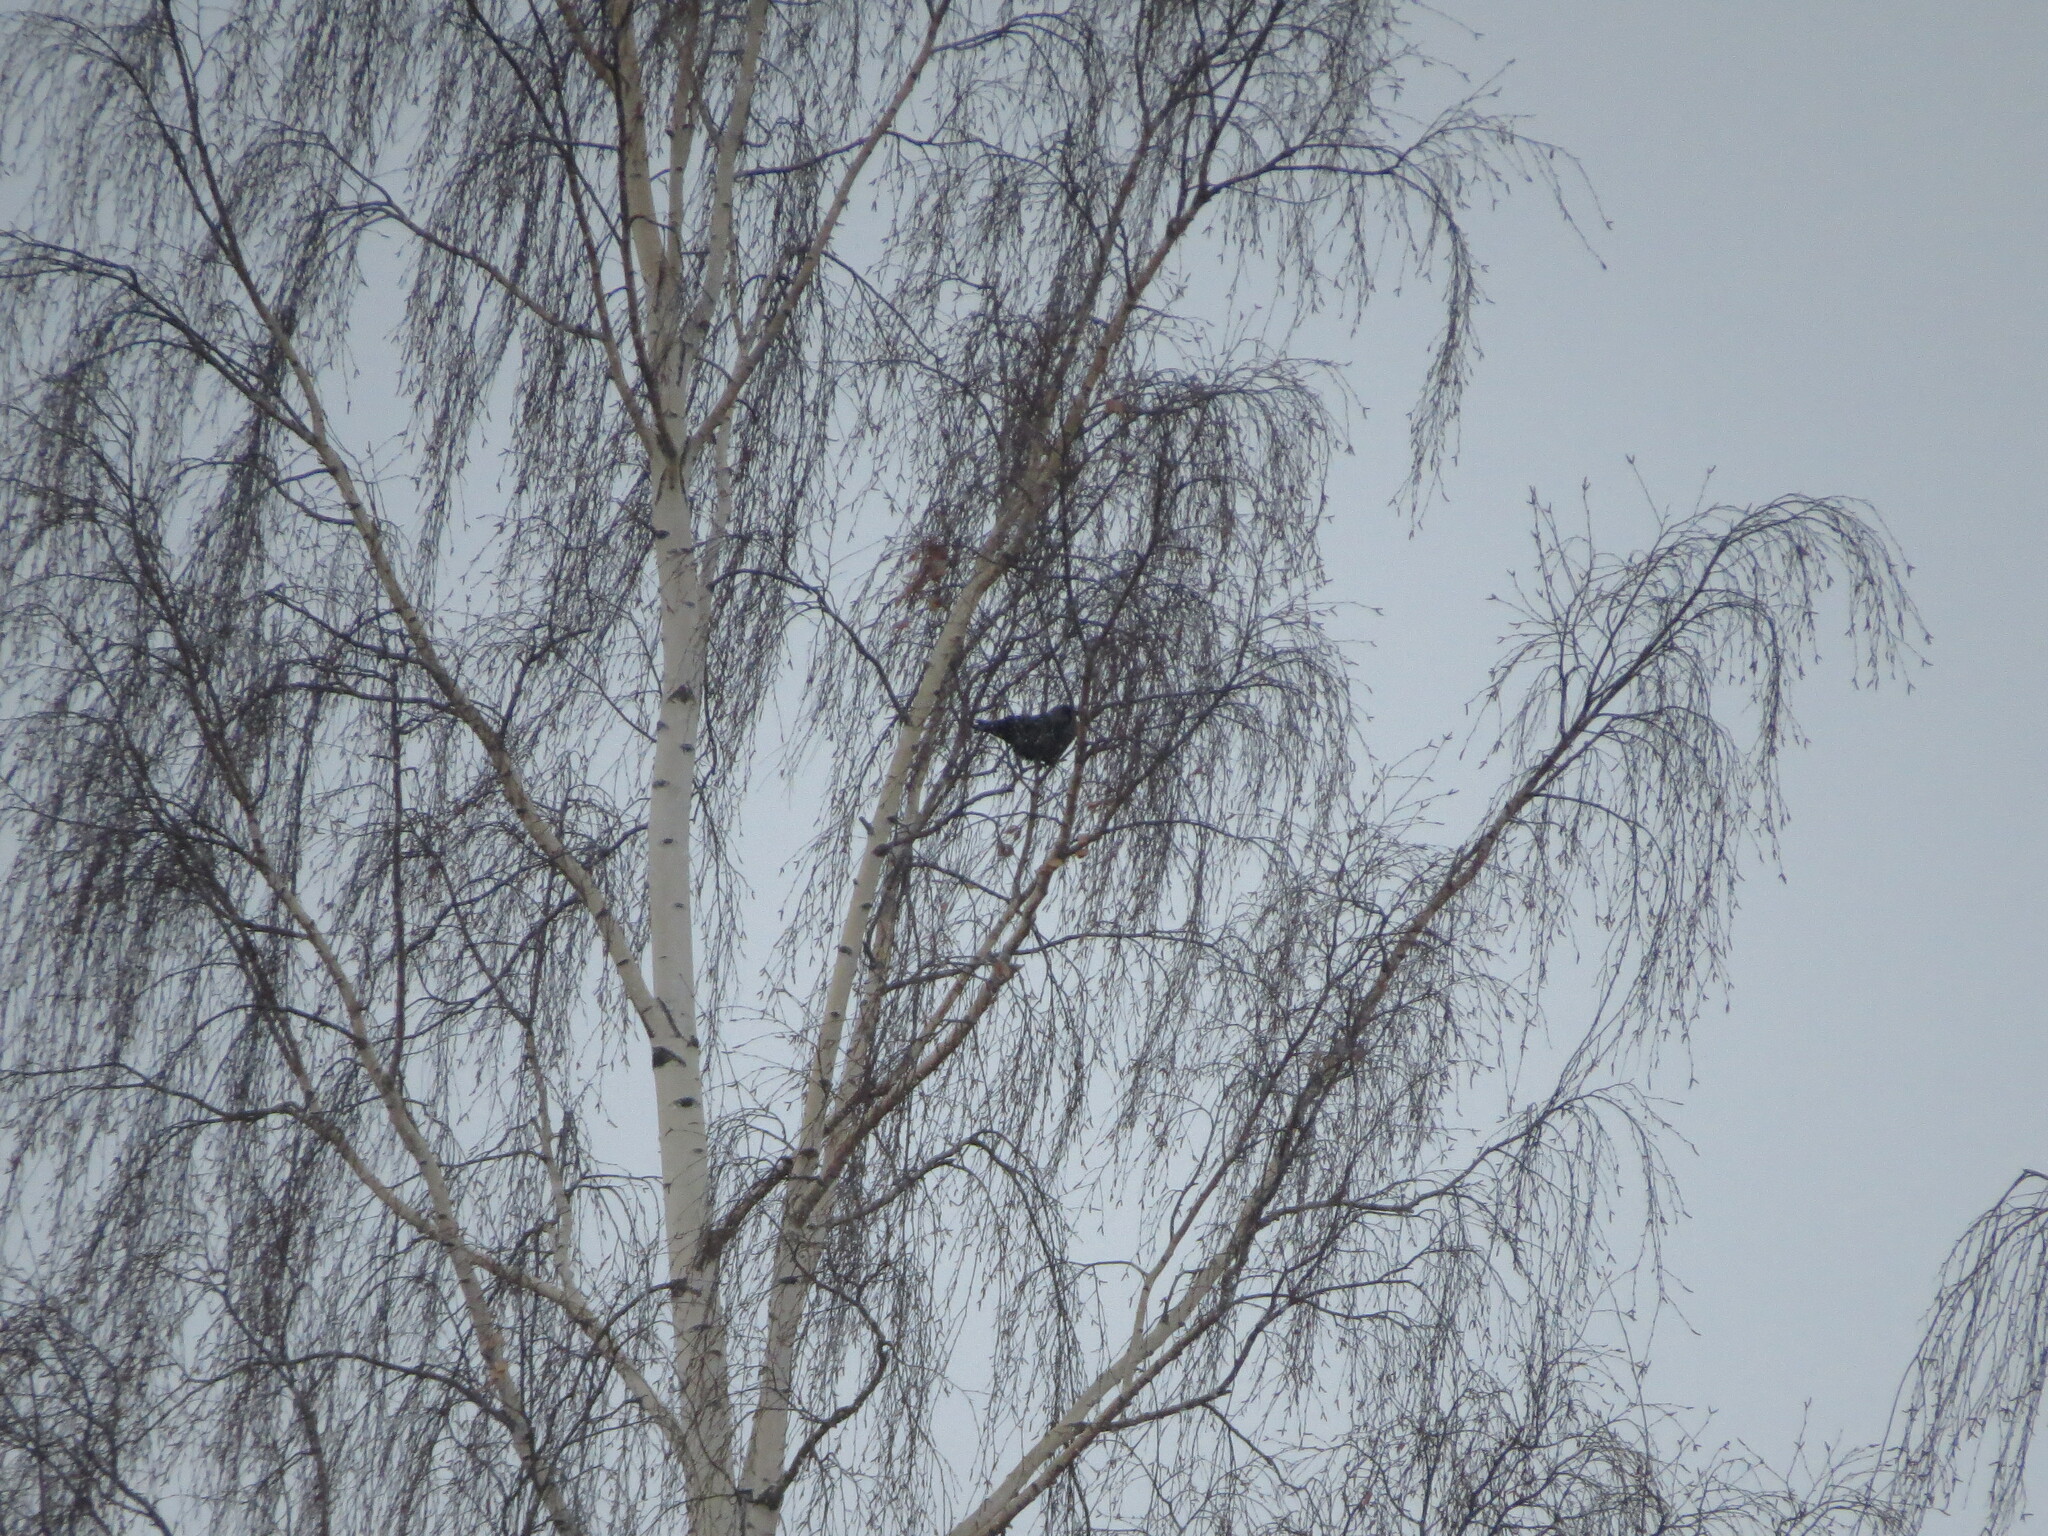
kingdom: Animalia
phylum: Chordata
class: Aves
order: Passeriformes
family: Corvidae
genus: Coloeus
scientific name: Coloeus monedula
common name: Western jackdaw
